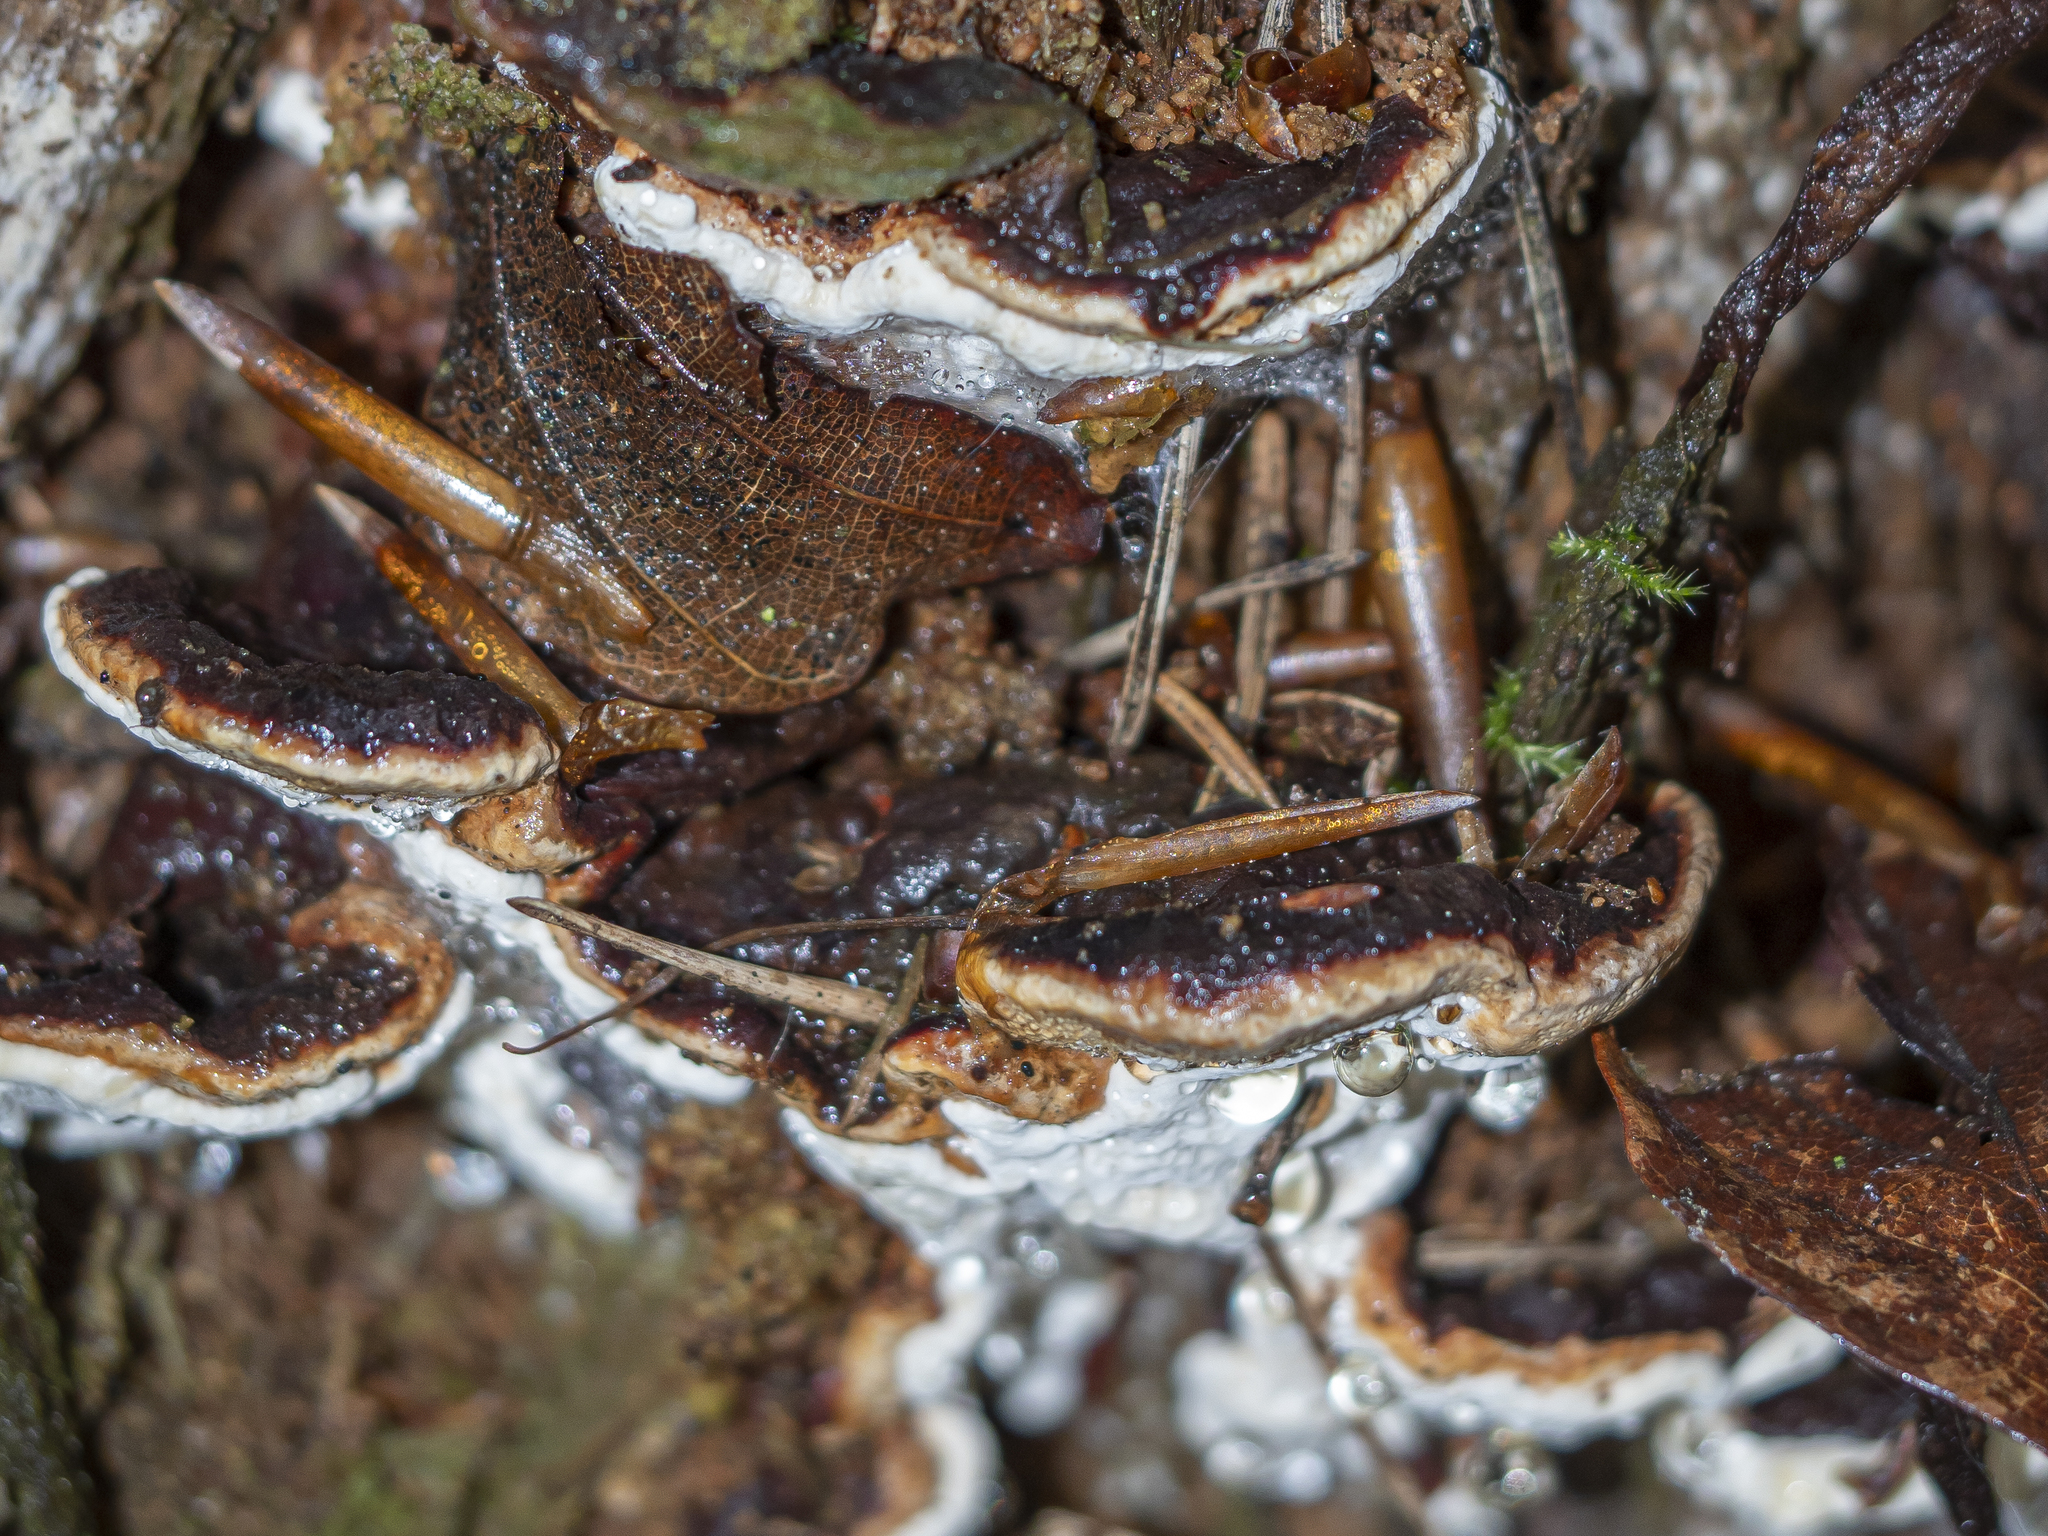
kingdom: Fungi
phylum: Basidiomycota
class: Agaricomycetes
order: Russulales
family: Bondarzewiaceae
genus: Heterobasidion
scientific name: Heterobasidion annosum
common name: Root rot
